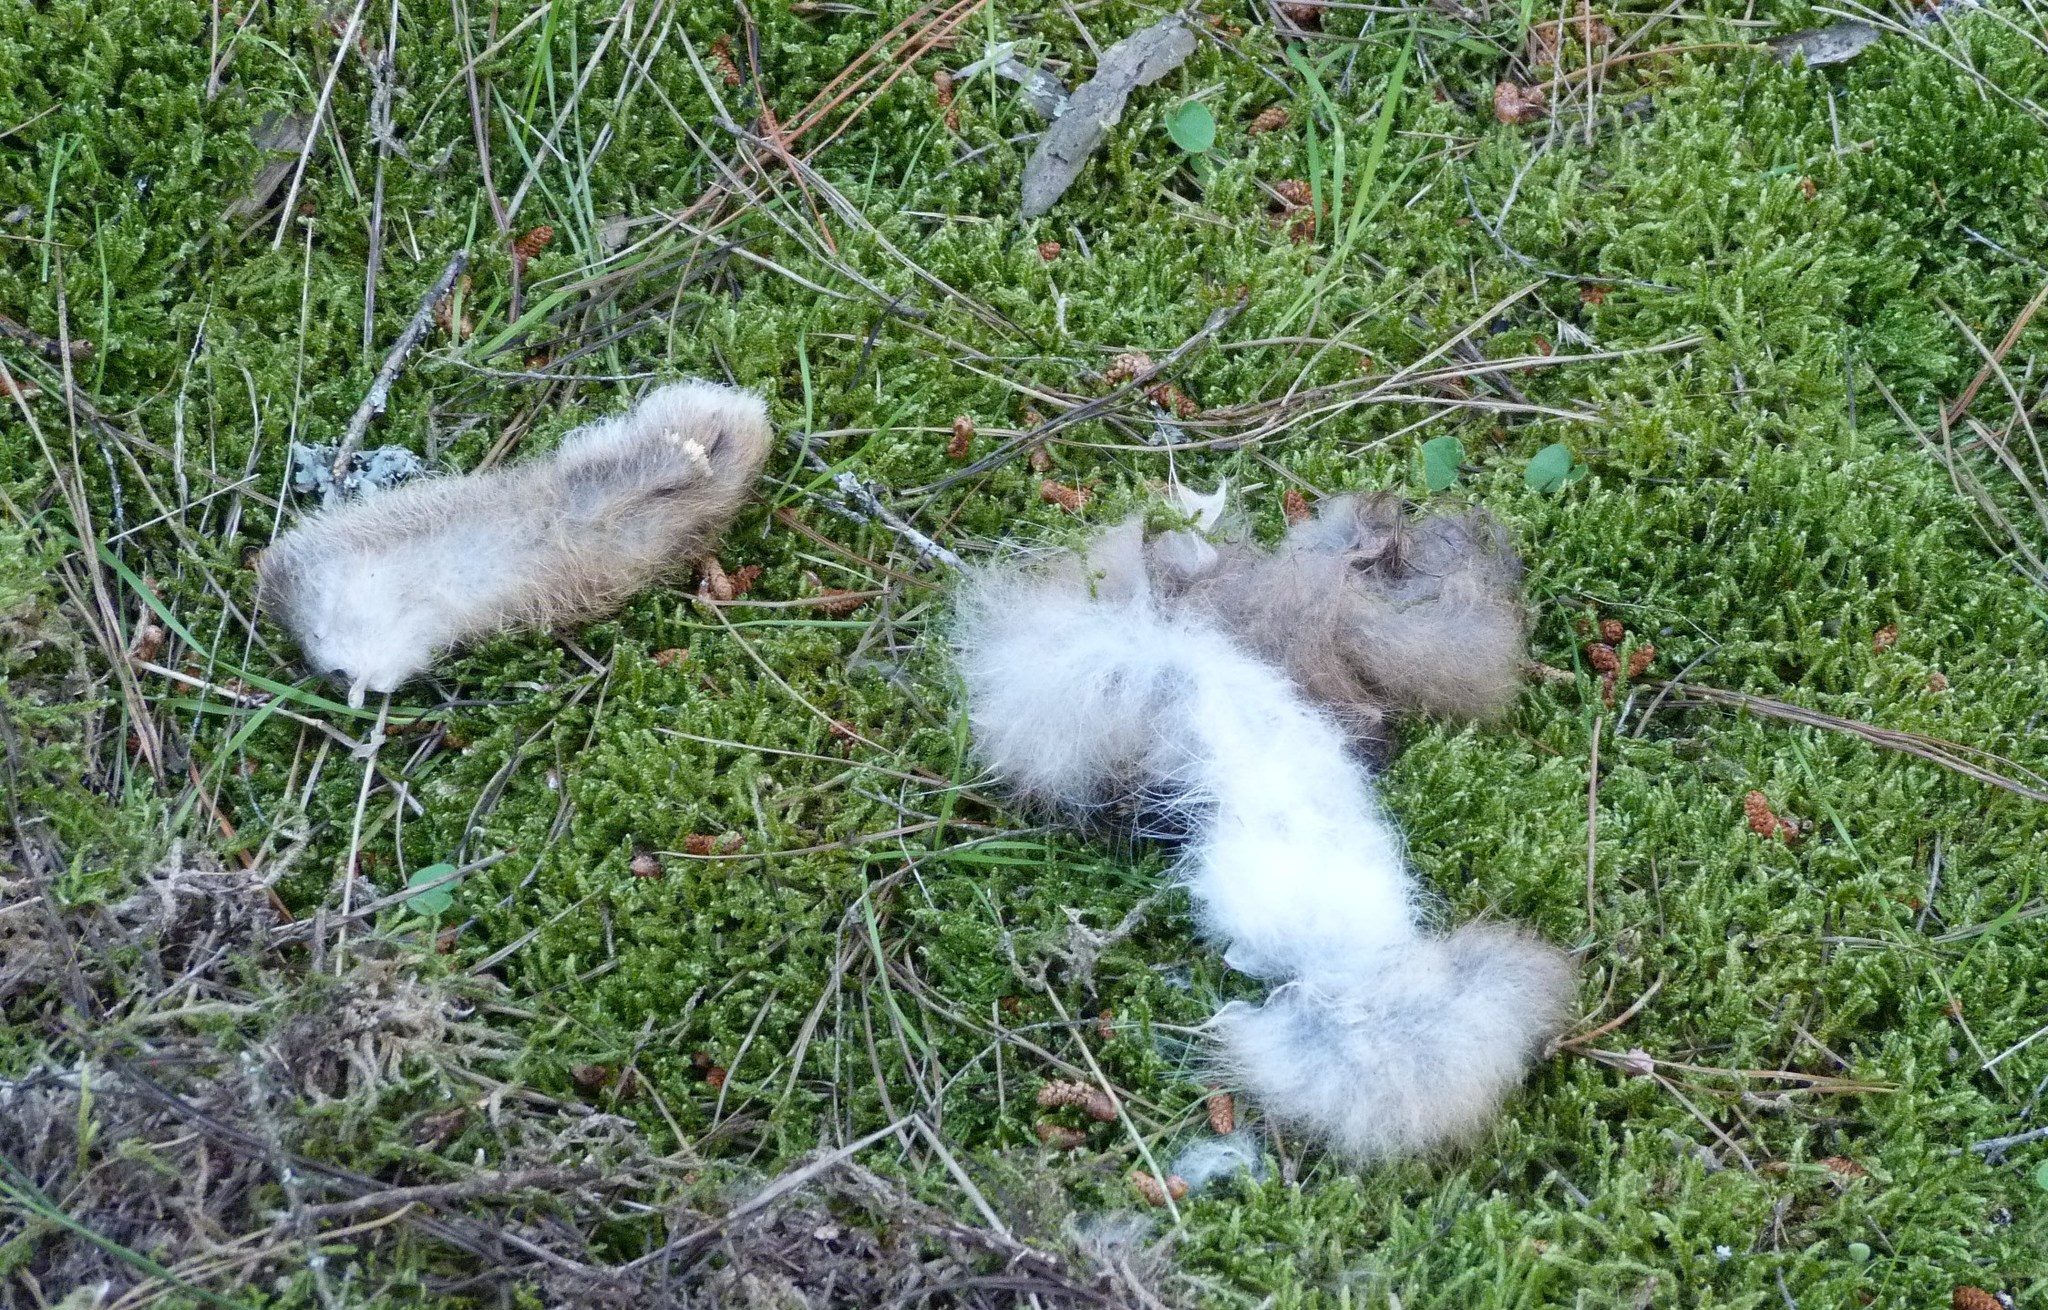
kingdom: Animalia
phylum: Chordata
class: Mammalia
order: Lagomorpha
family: Leporidae
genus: Oryctolagus
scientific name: Oryctolagus cuniculus
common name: European rabbit
